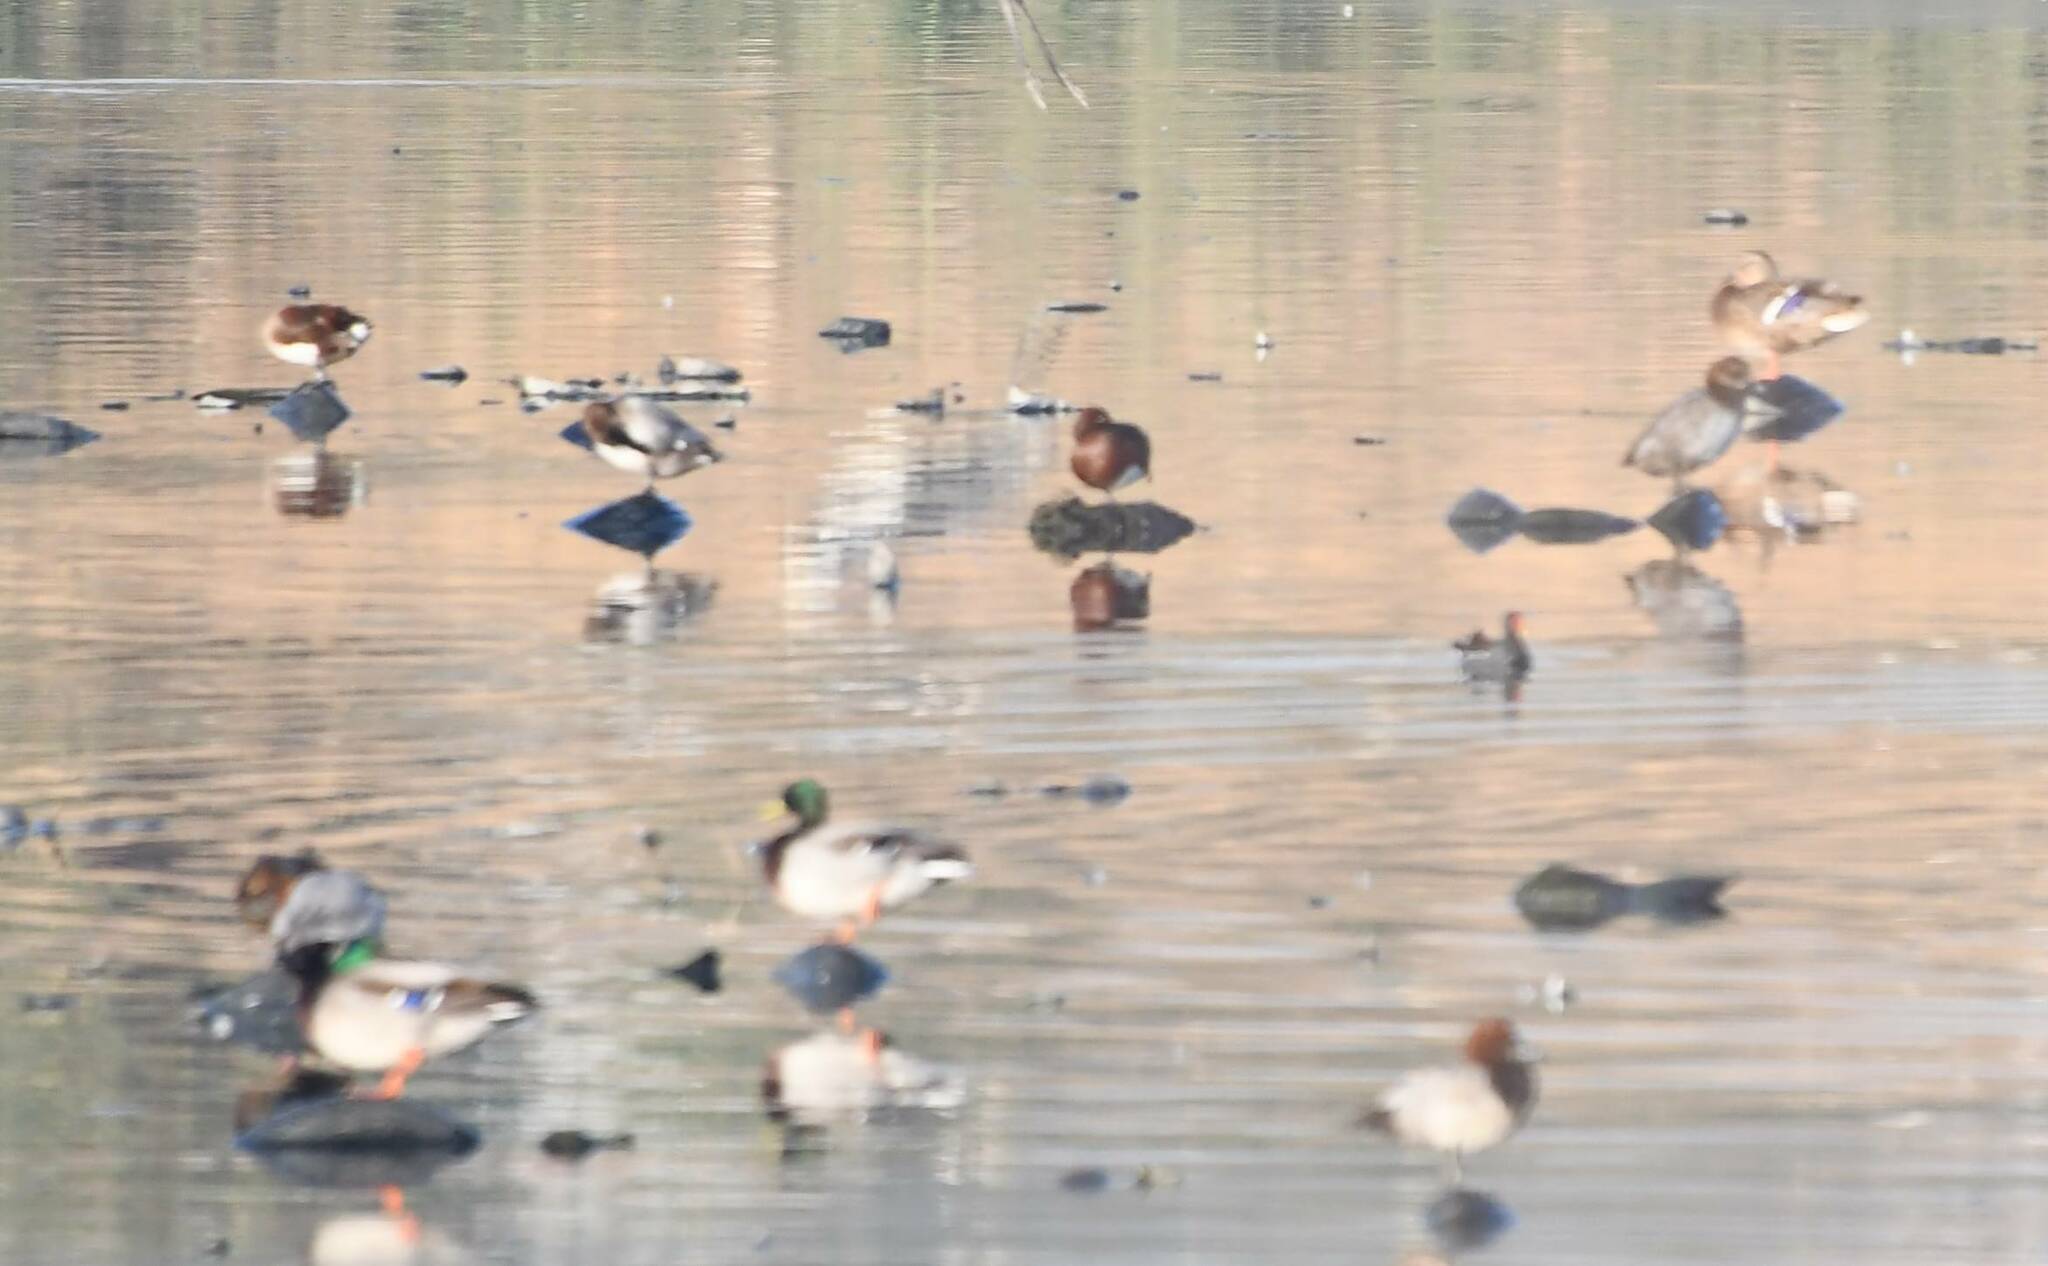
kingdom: Animalia
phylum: Chordata
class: Aves
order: Anseriformes
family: Anatidae
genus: Aythya
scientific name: Aythya nyroca
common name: Ferruginous duck
